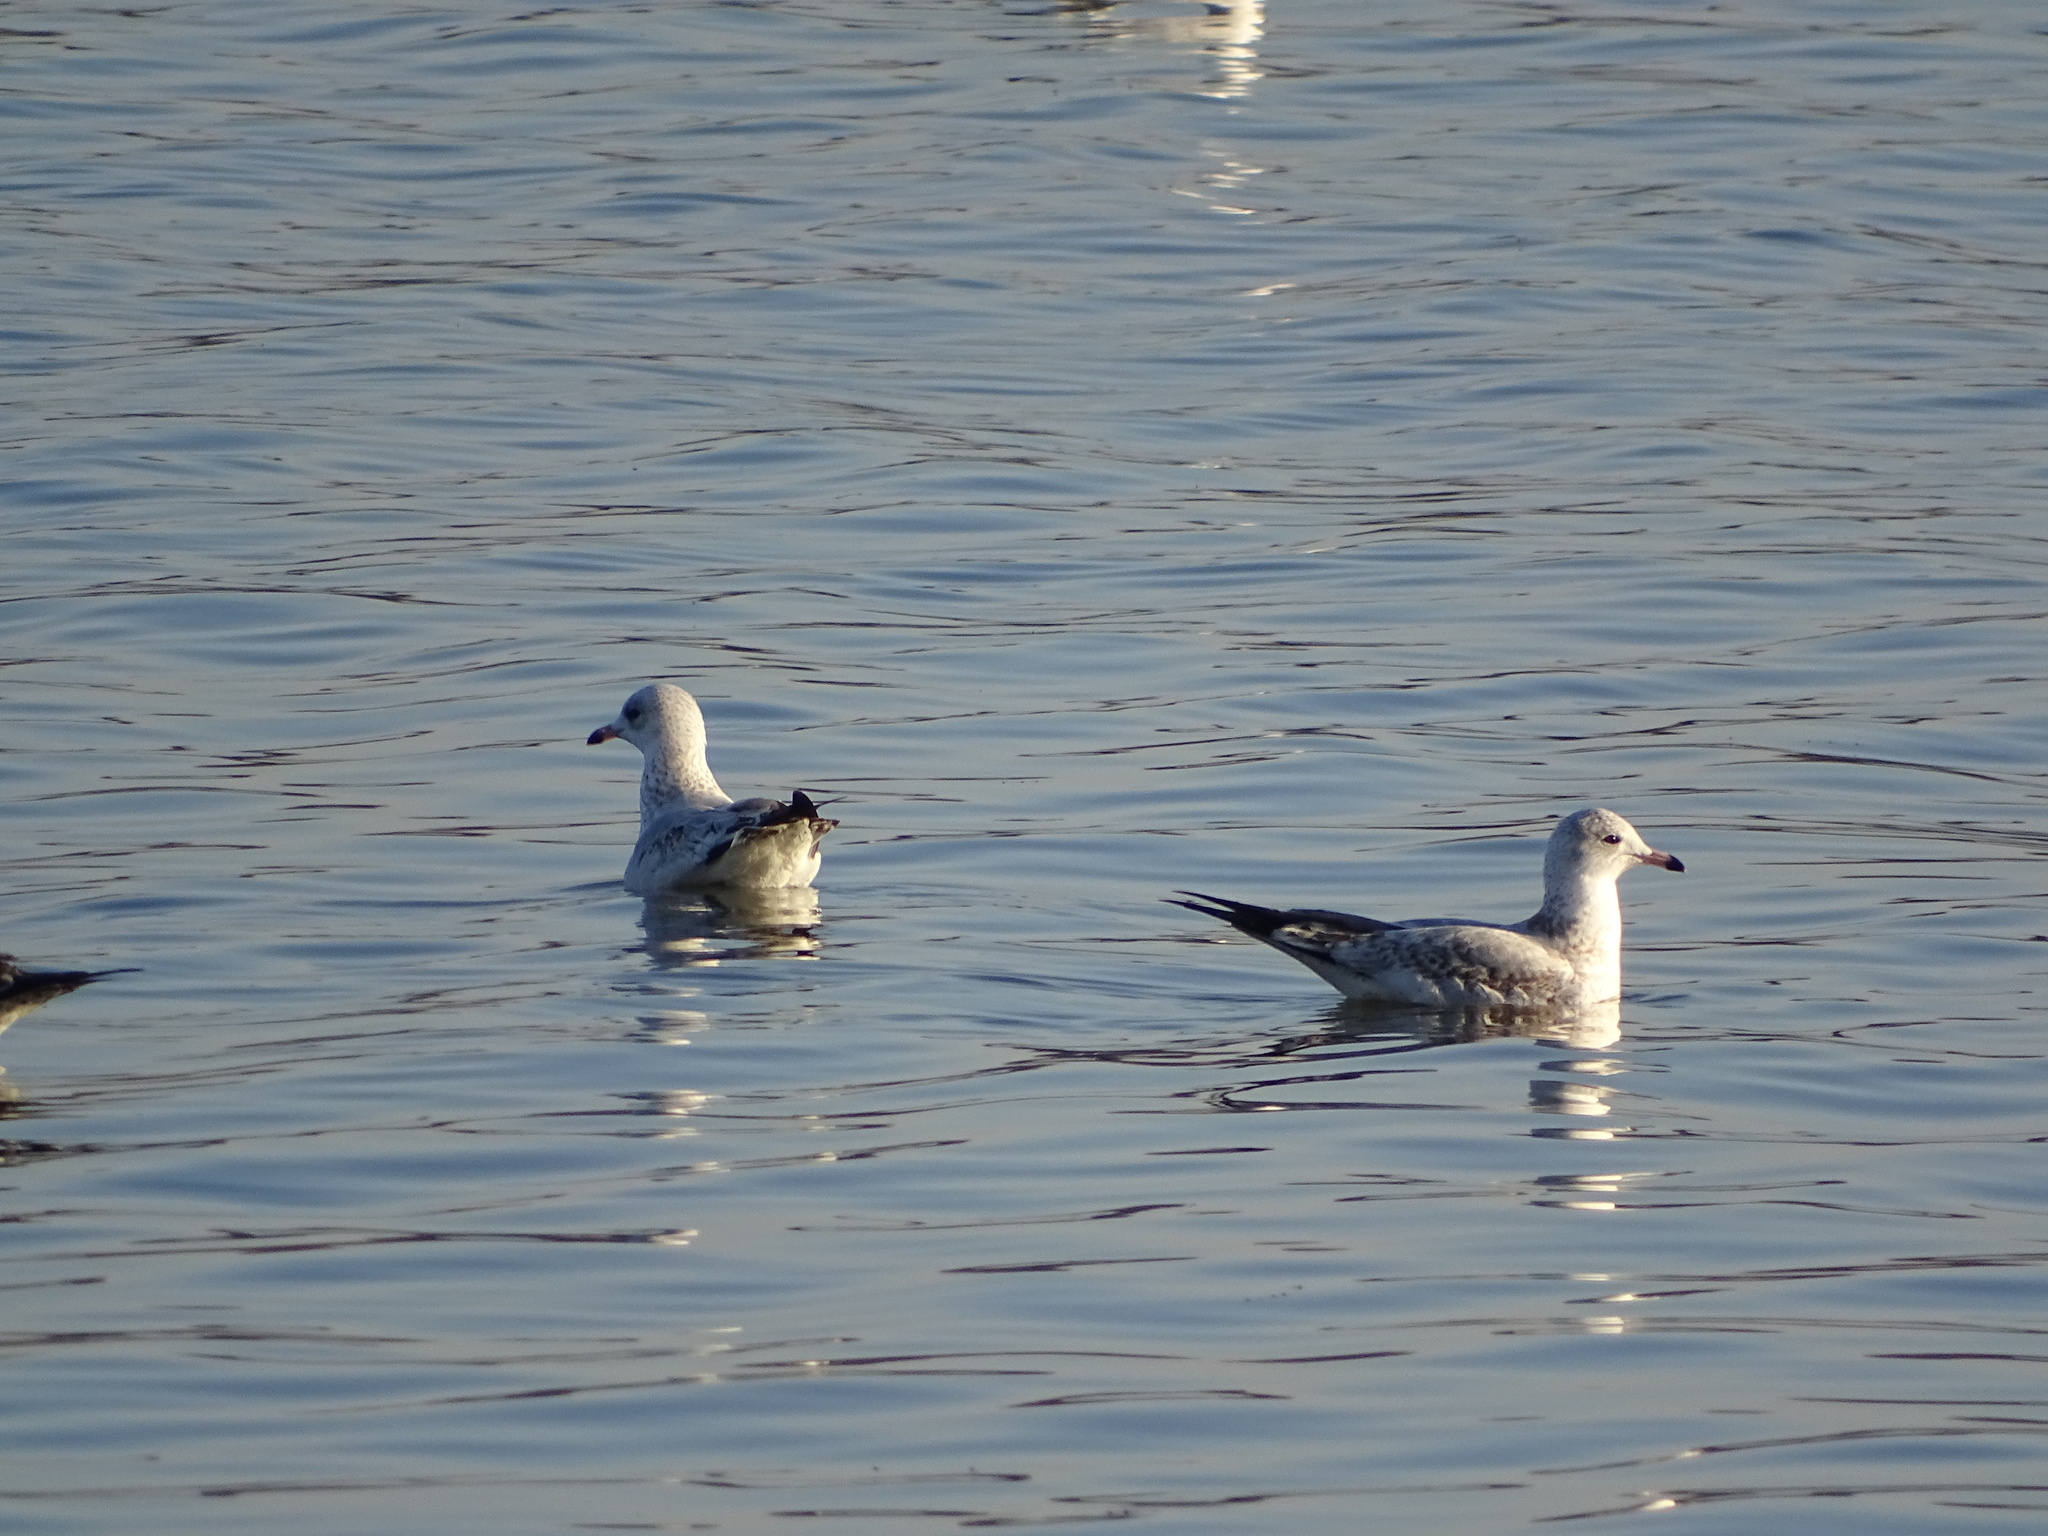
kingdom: Animalia
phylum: Chordata
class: Aves
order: Charadriiformes
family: Laridae
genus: Larus
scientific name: Larus delawarensis
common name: Ring-billed gull
